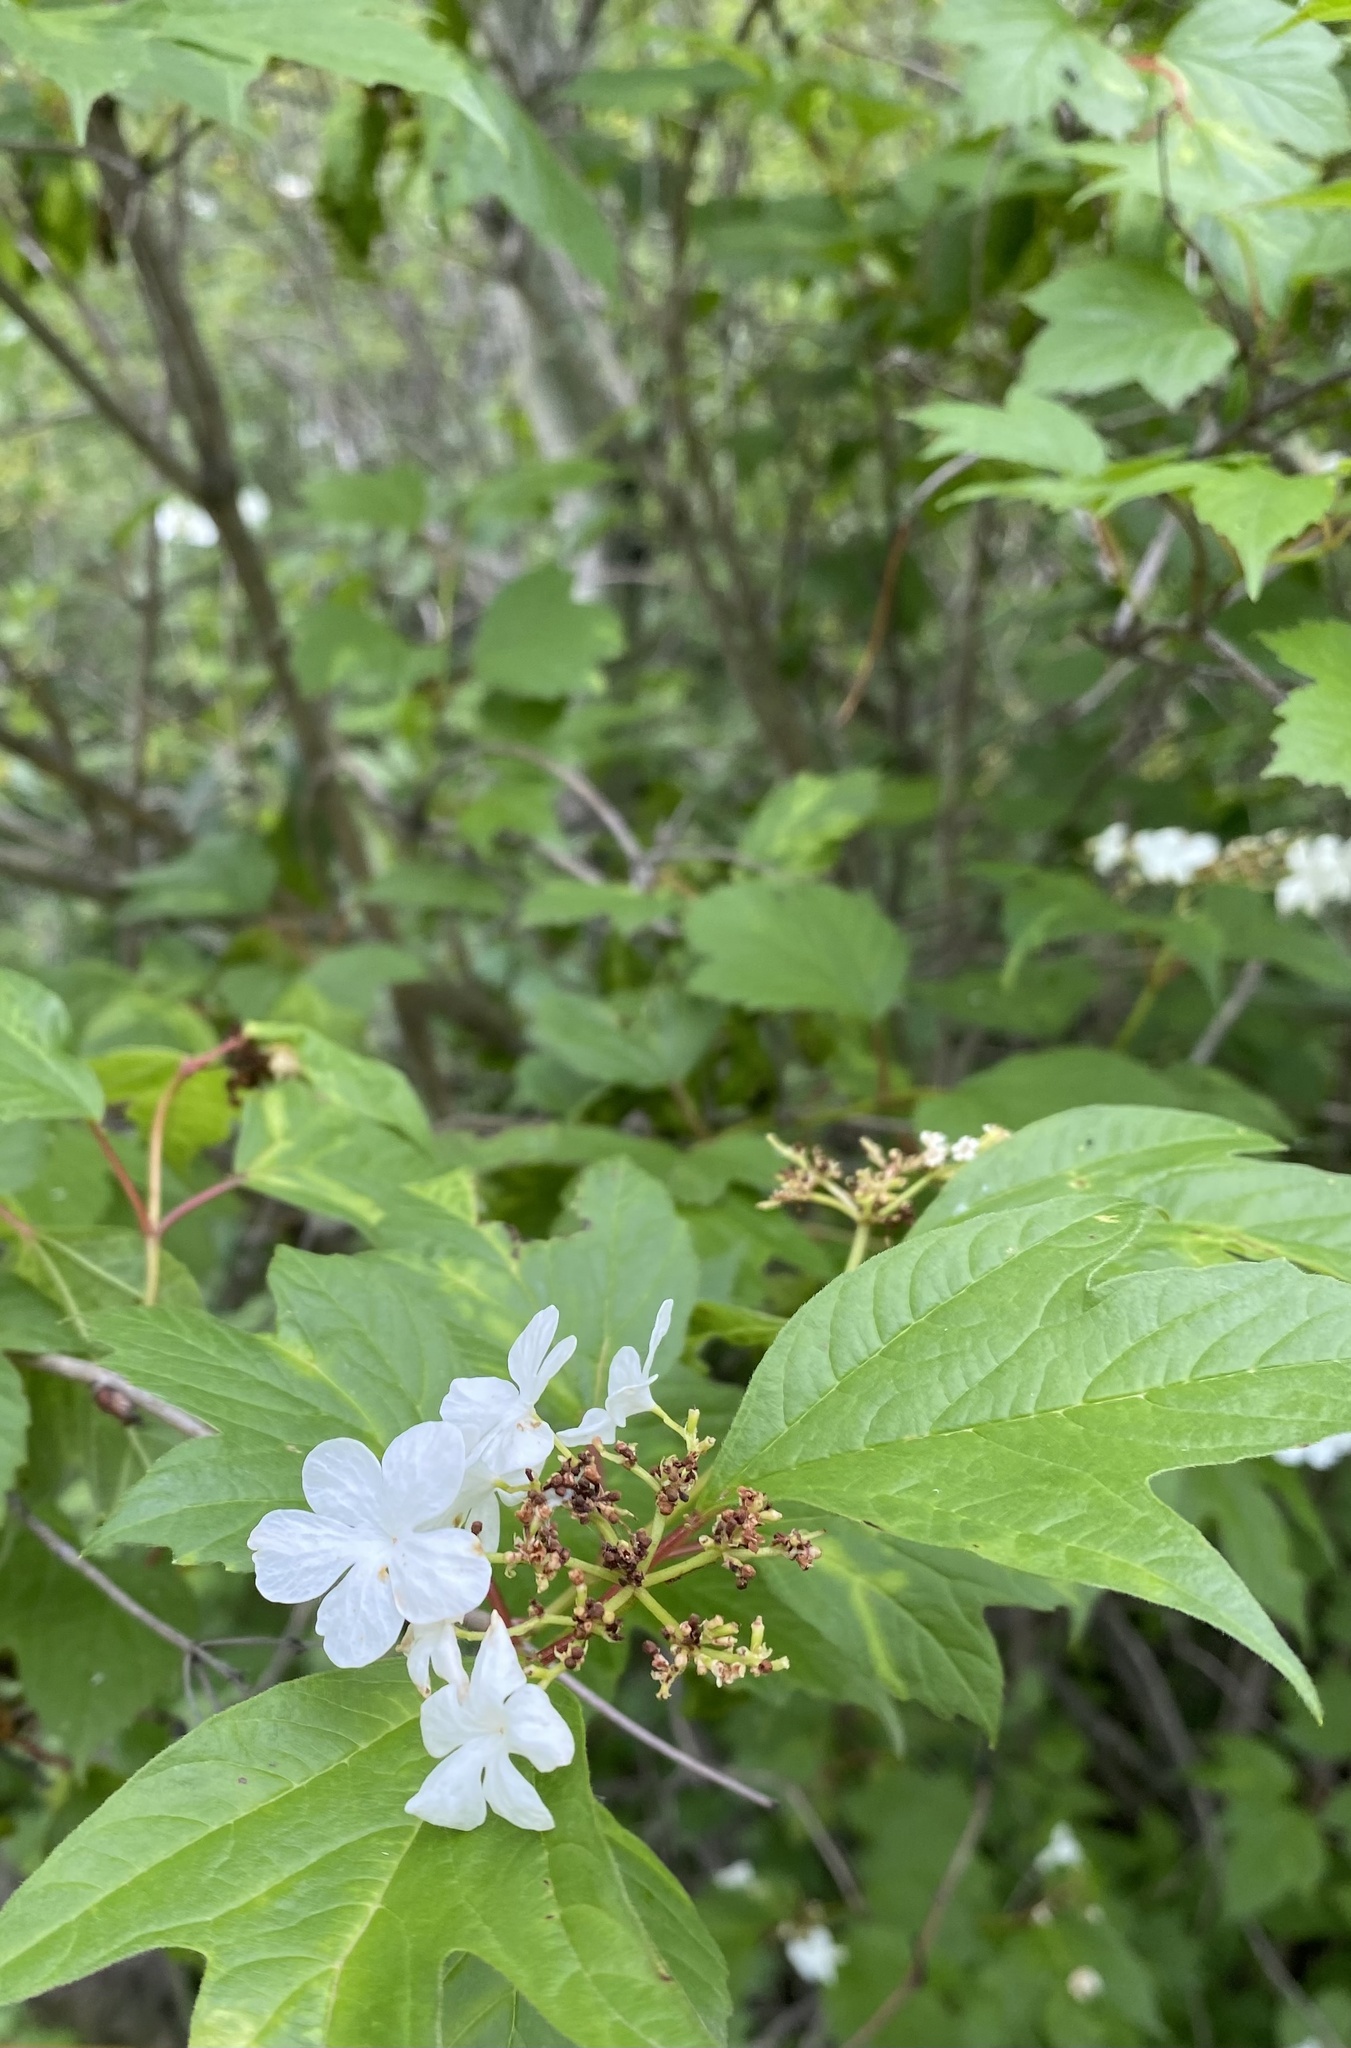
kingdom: Plantae
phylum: Tracheophyta
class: Magnoliopsida
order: Dipsacales
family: Viburnaceae
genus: Viburnum
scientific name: Viburnum opulus
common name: Guelder-rose
